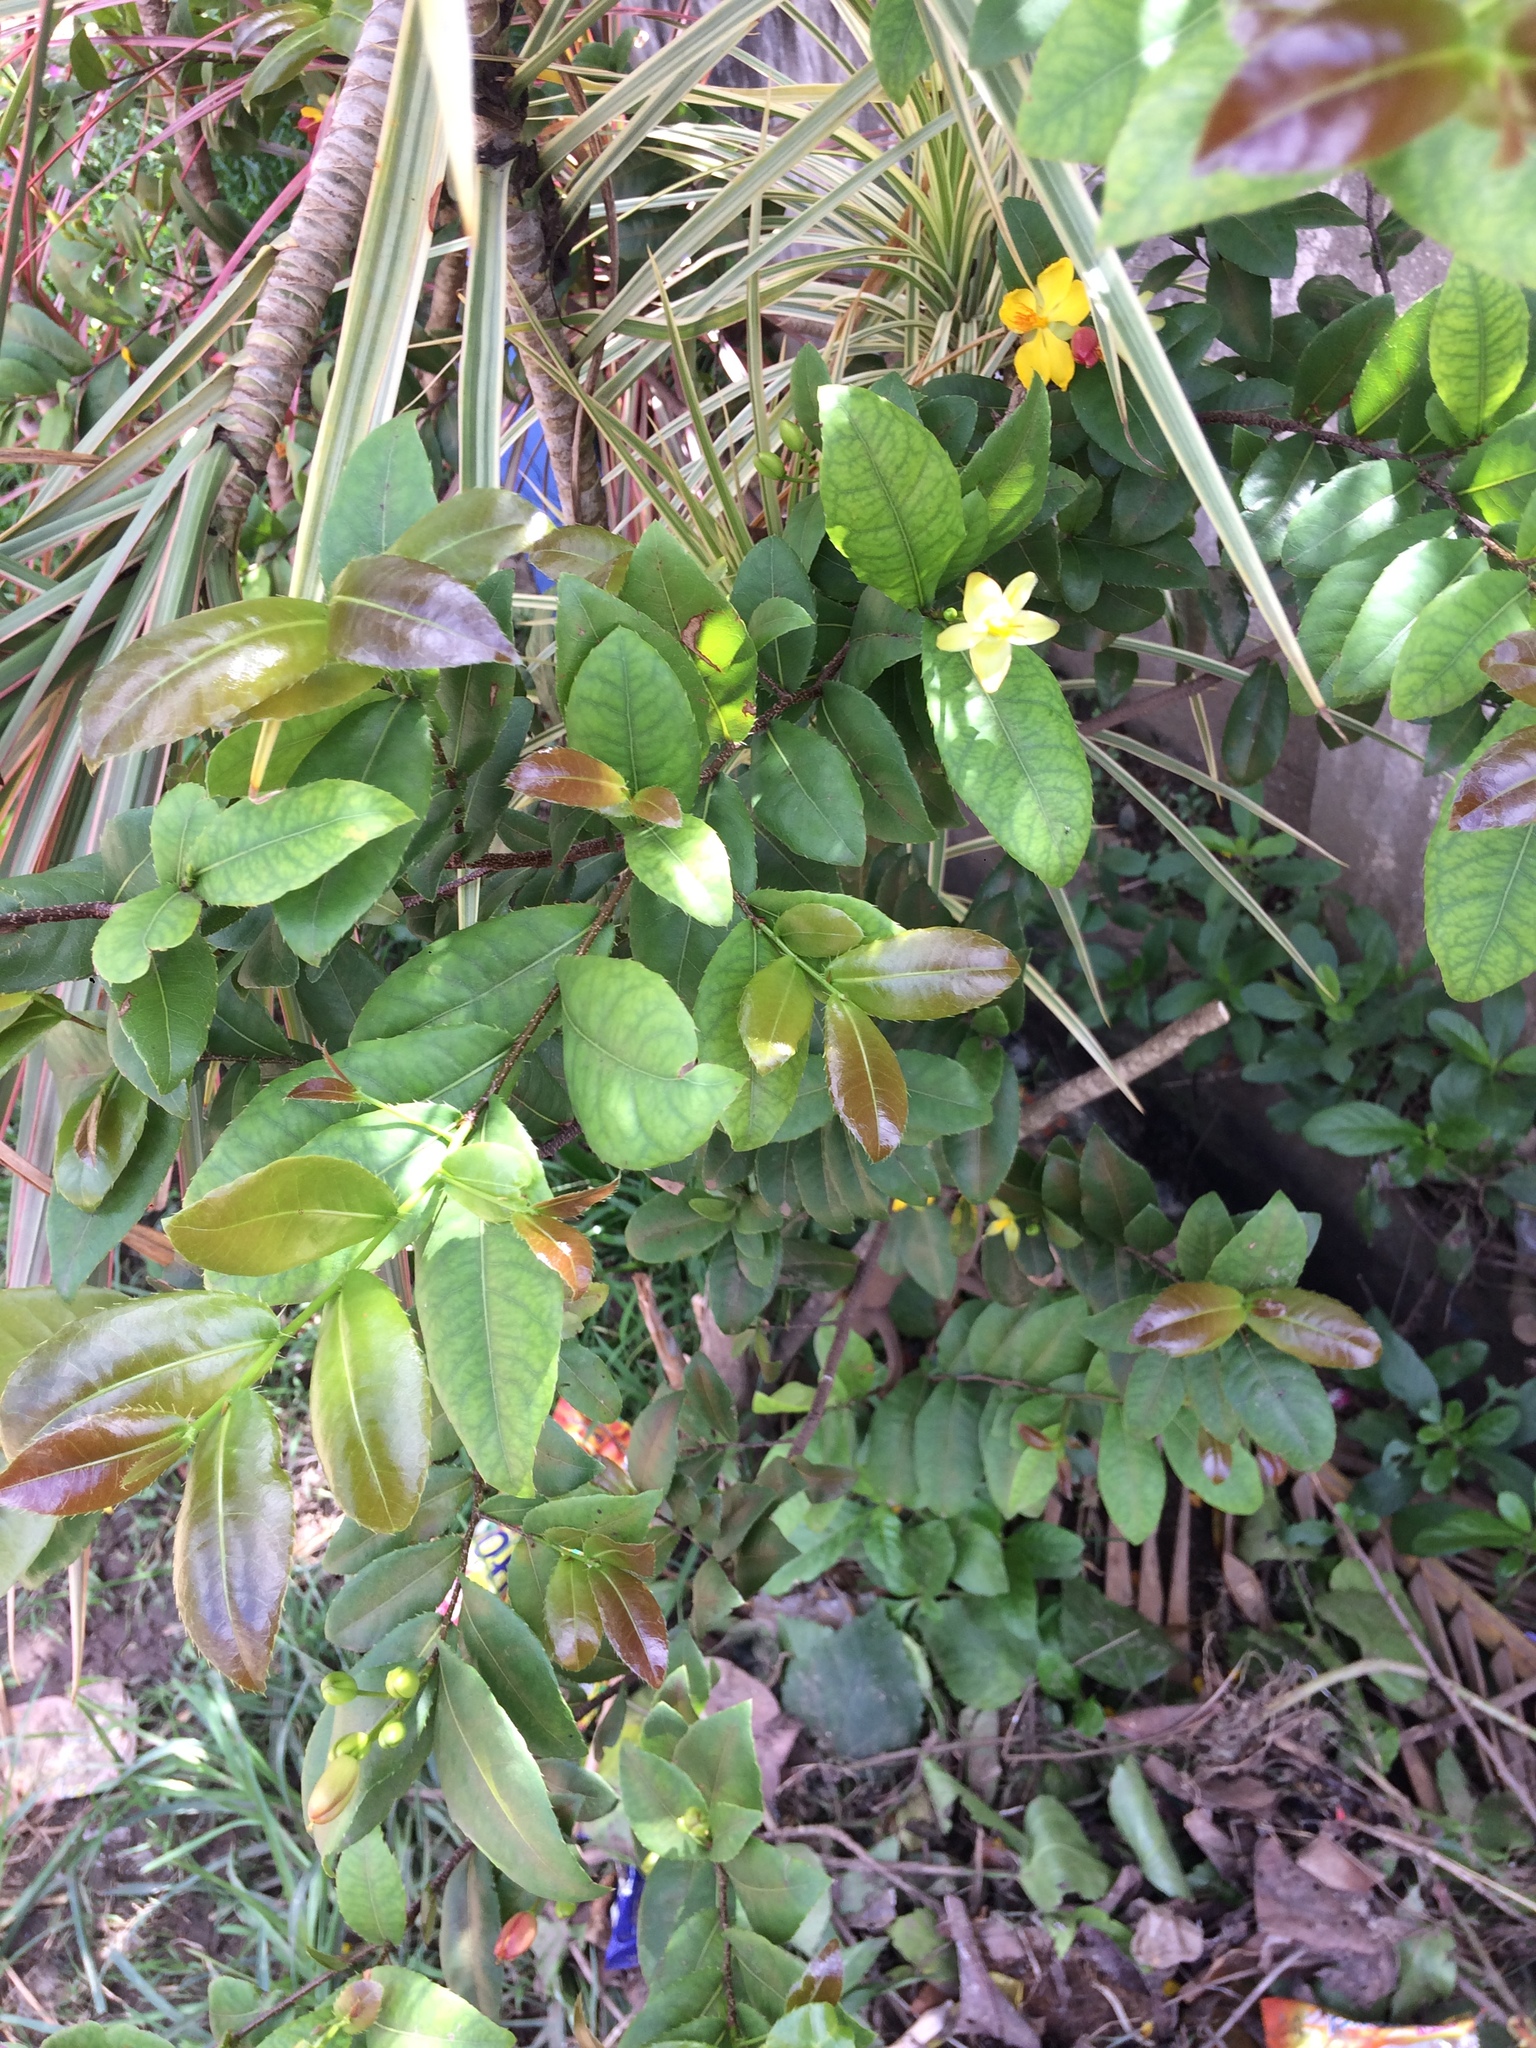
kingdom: Plantae
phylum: Tracheophyta
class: Magnoliopsida
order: Malpighiales
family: Ochnaceae
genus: Ochna
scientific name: Ochna serrulata
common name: Mickey mouse plant
